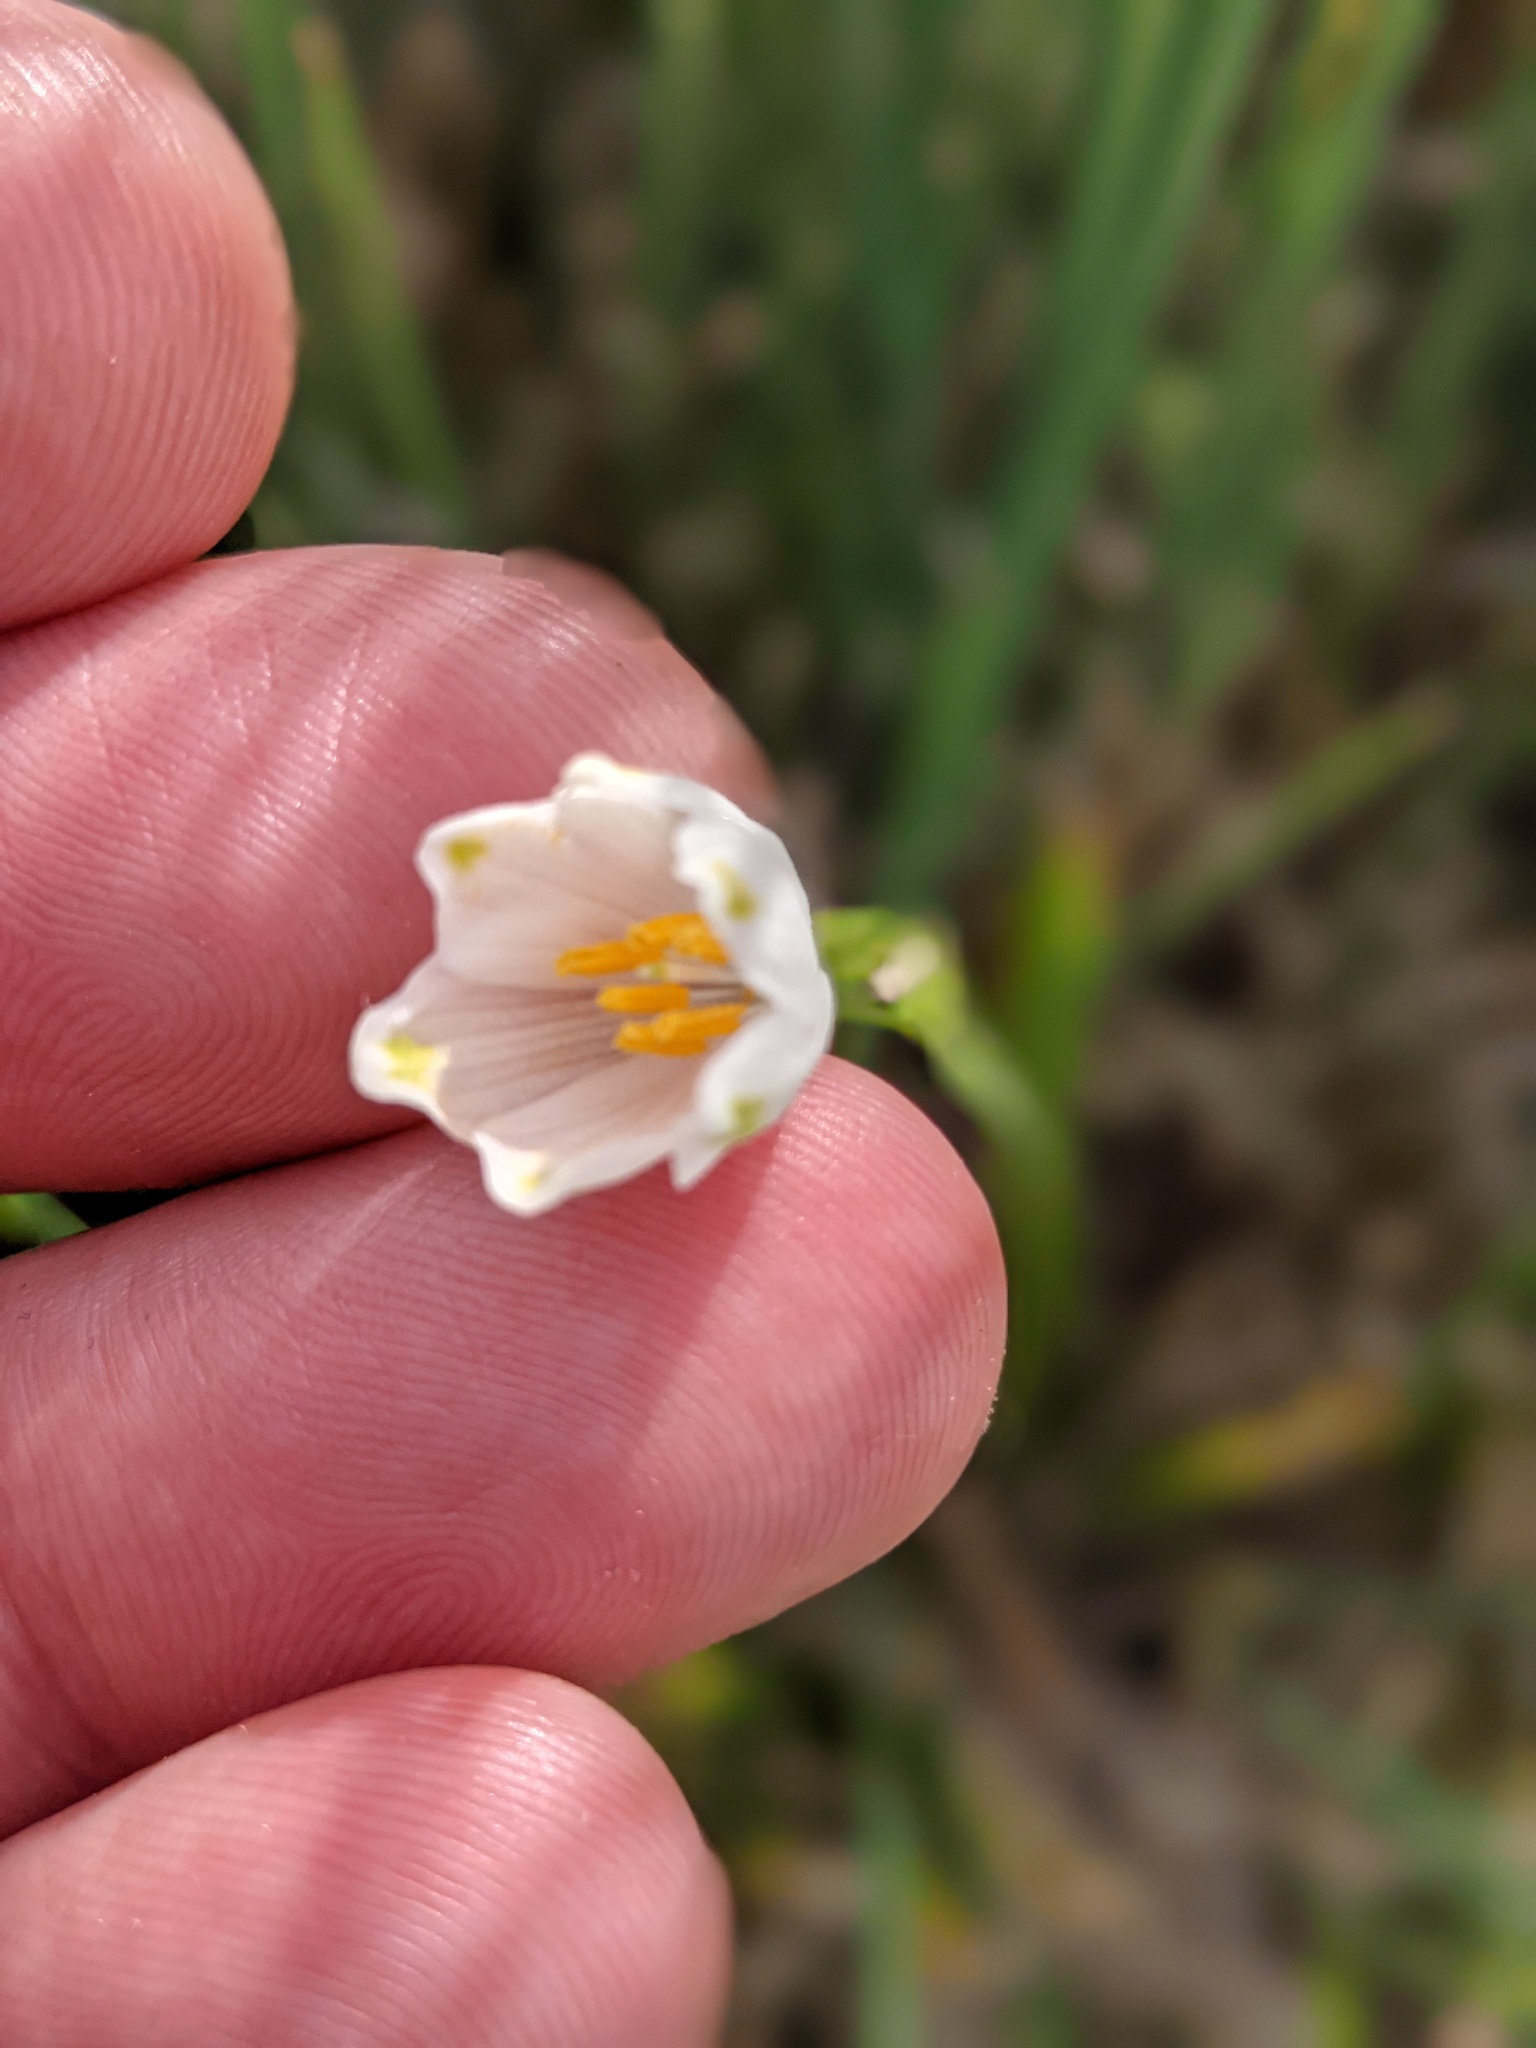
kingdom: Plantae
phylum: Tracheophyta
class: Liliopsida
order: Asparagales
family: Amaryllidaceae
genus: Leucojum
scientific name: Leucojum aestivum
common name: Summer snowflake
